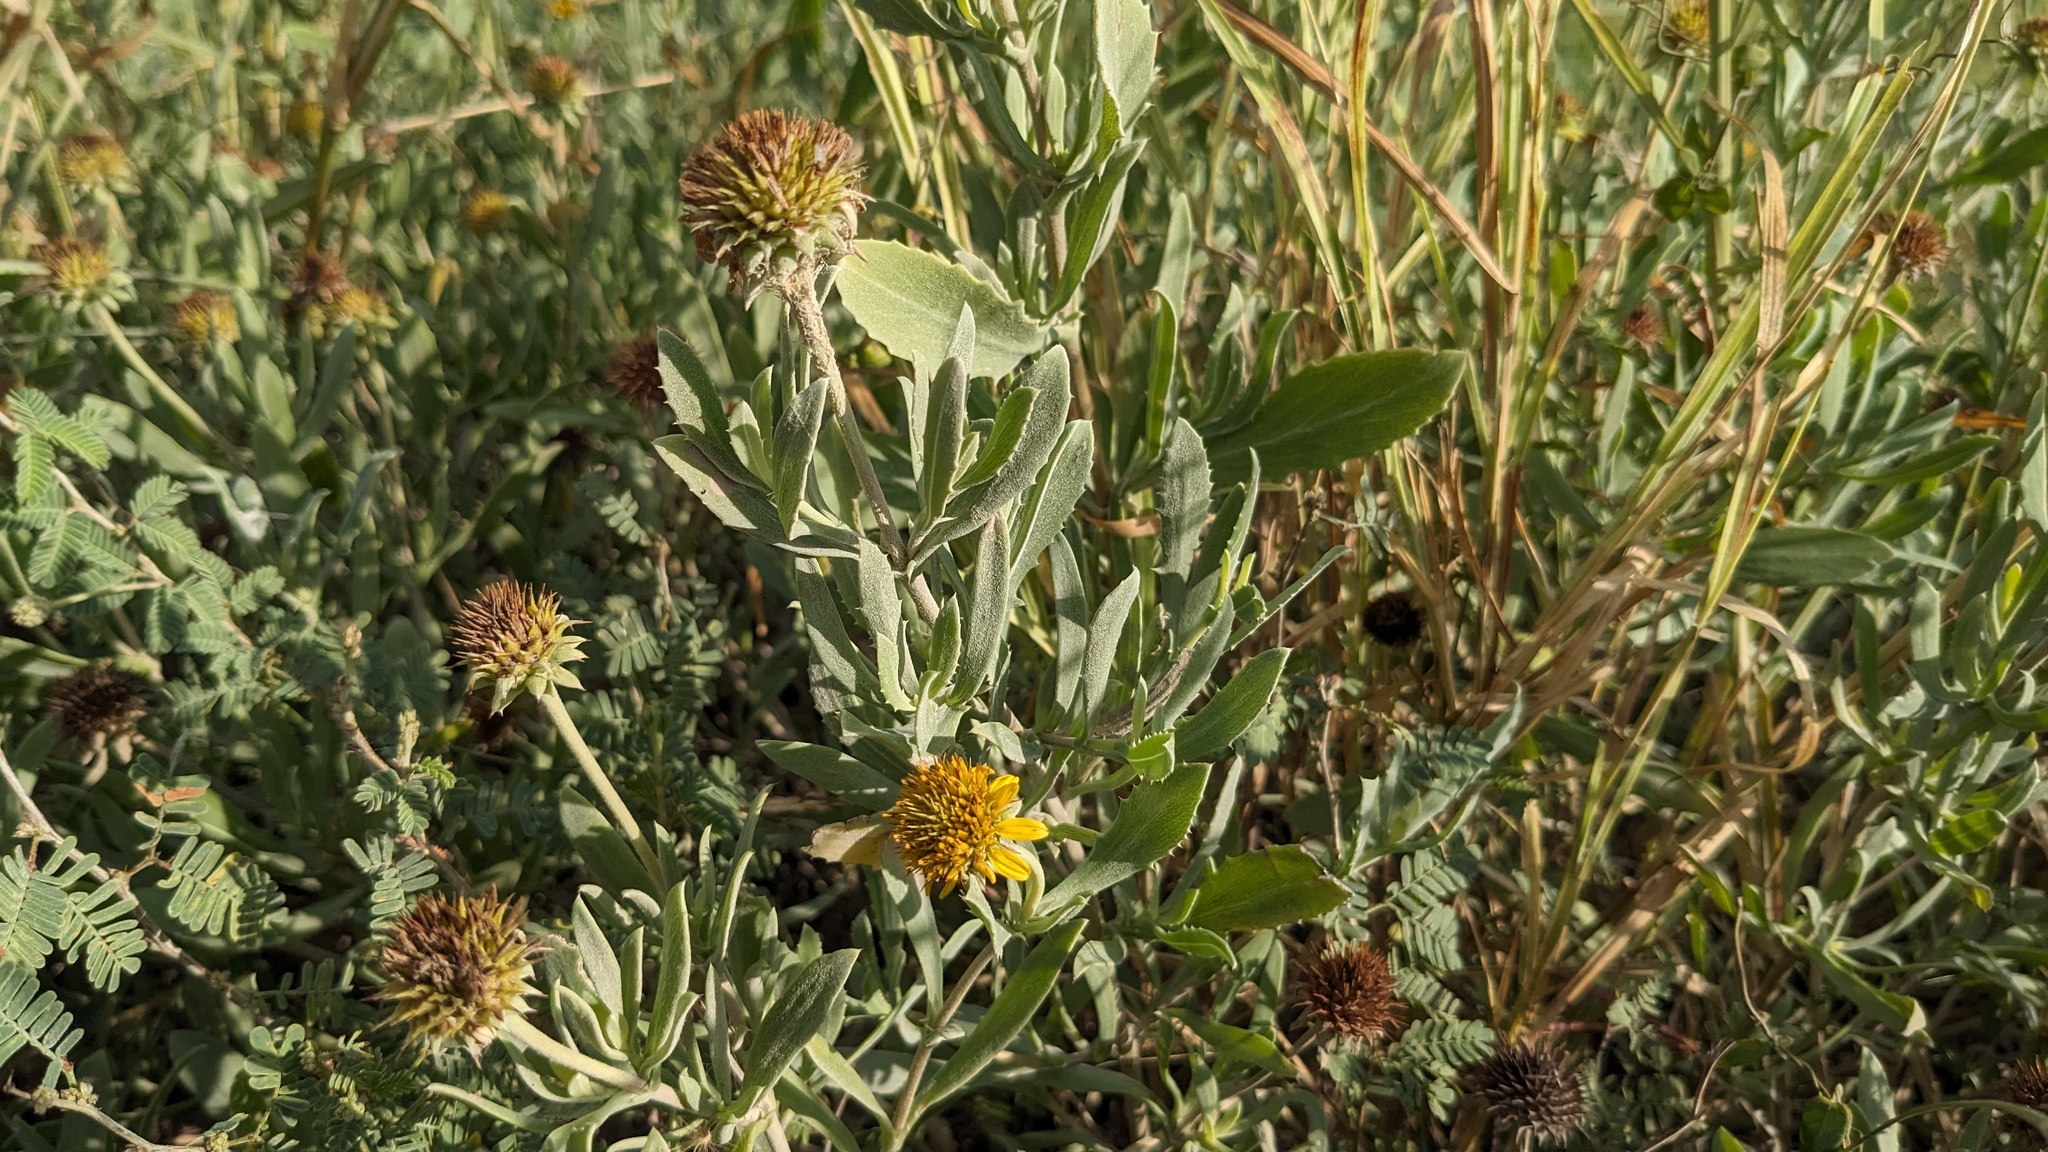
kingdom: Plantae
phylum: Tracheophyta
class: Magnoliopsida
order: Asterales
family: Asteraceae
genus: Borrichia
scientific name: Borrichia frutescens
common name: Sea oxeye
